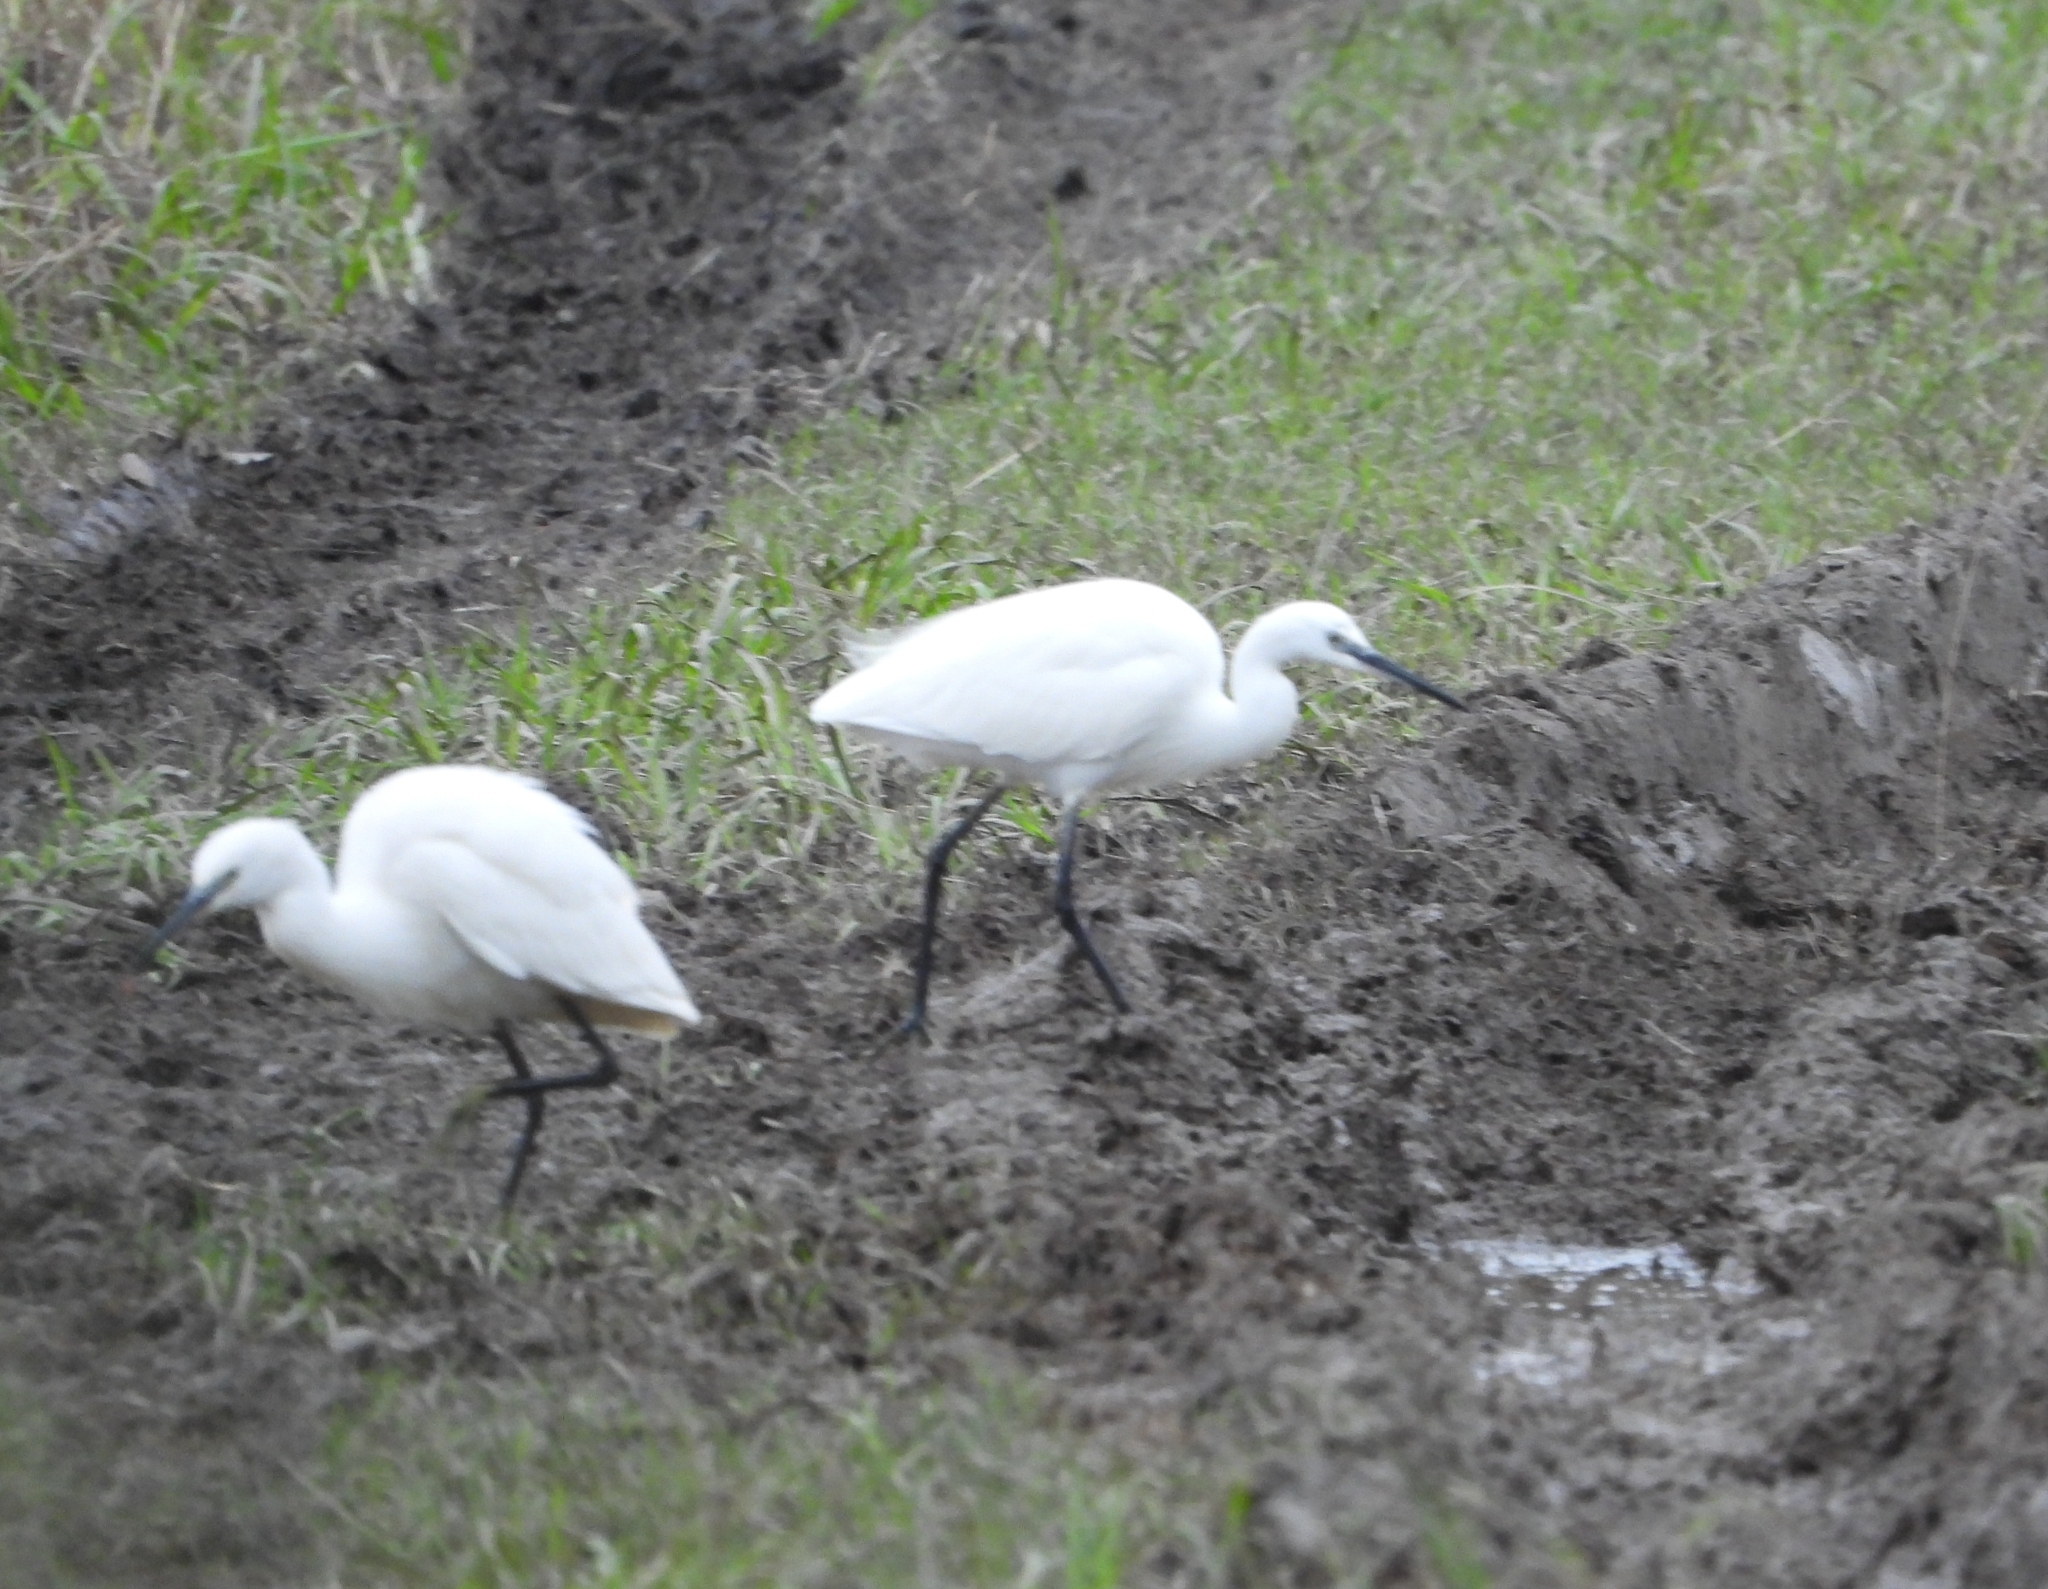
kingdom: Animalia
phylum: Chordata
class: Aves
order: Pelecaniformes
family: Ardeidae
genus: Egretta
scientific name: Egretta garzetta
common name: Little egret
